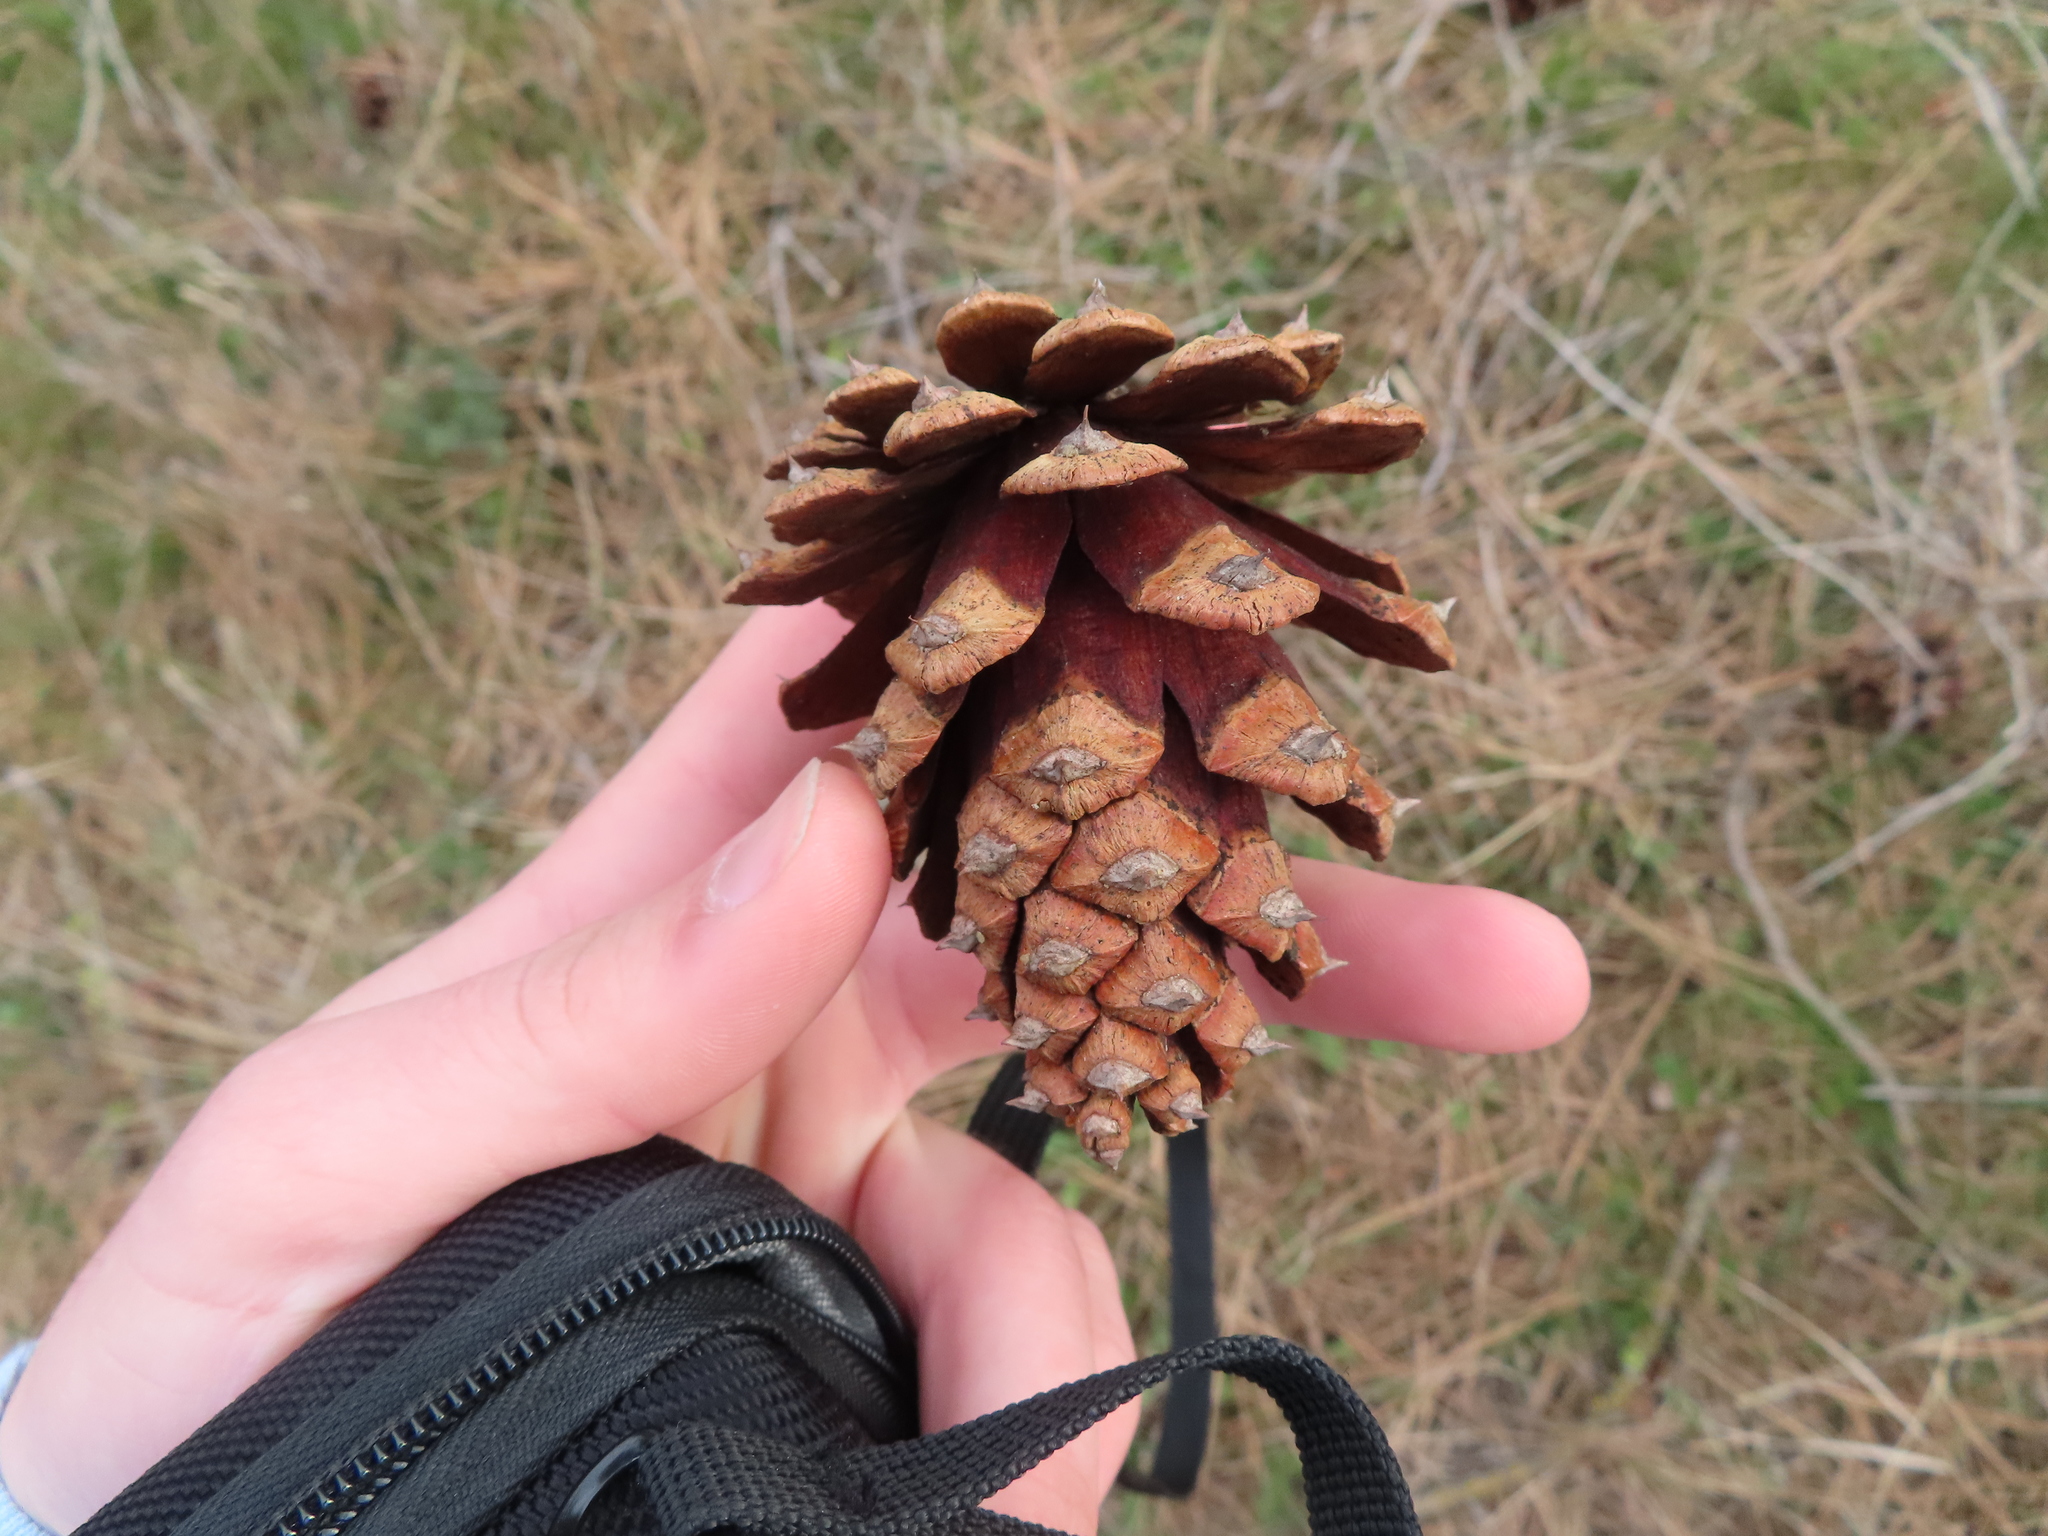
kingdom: Plantae
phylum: Tracheophyta
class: Pinopsida
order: Pinales
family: Pinaceae
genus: Pinus
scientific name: Pinus ponderosa
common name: Western yellow-pine
